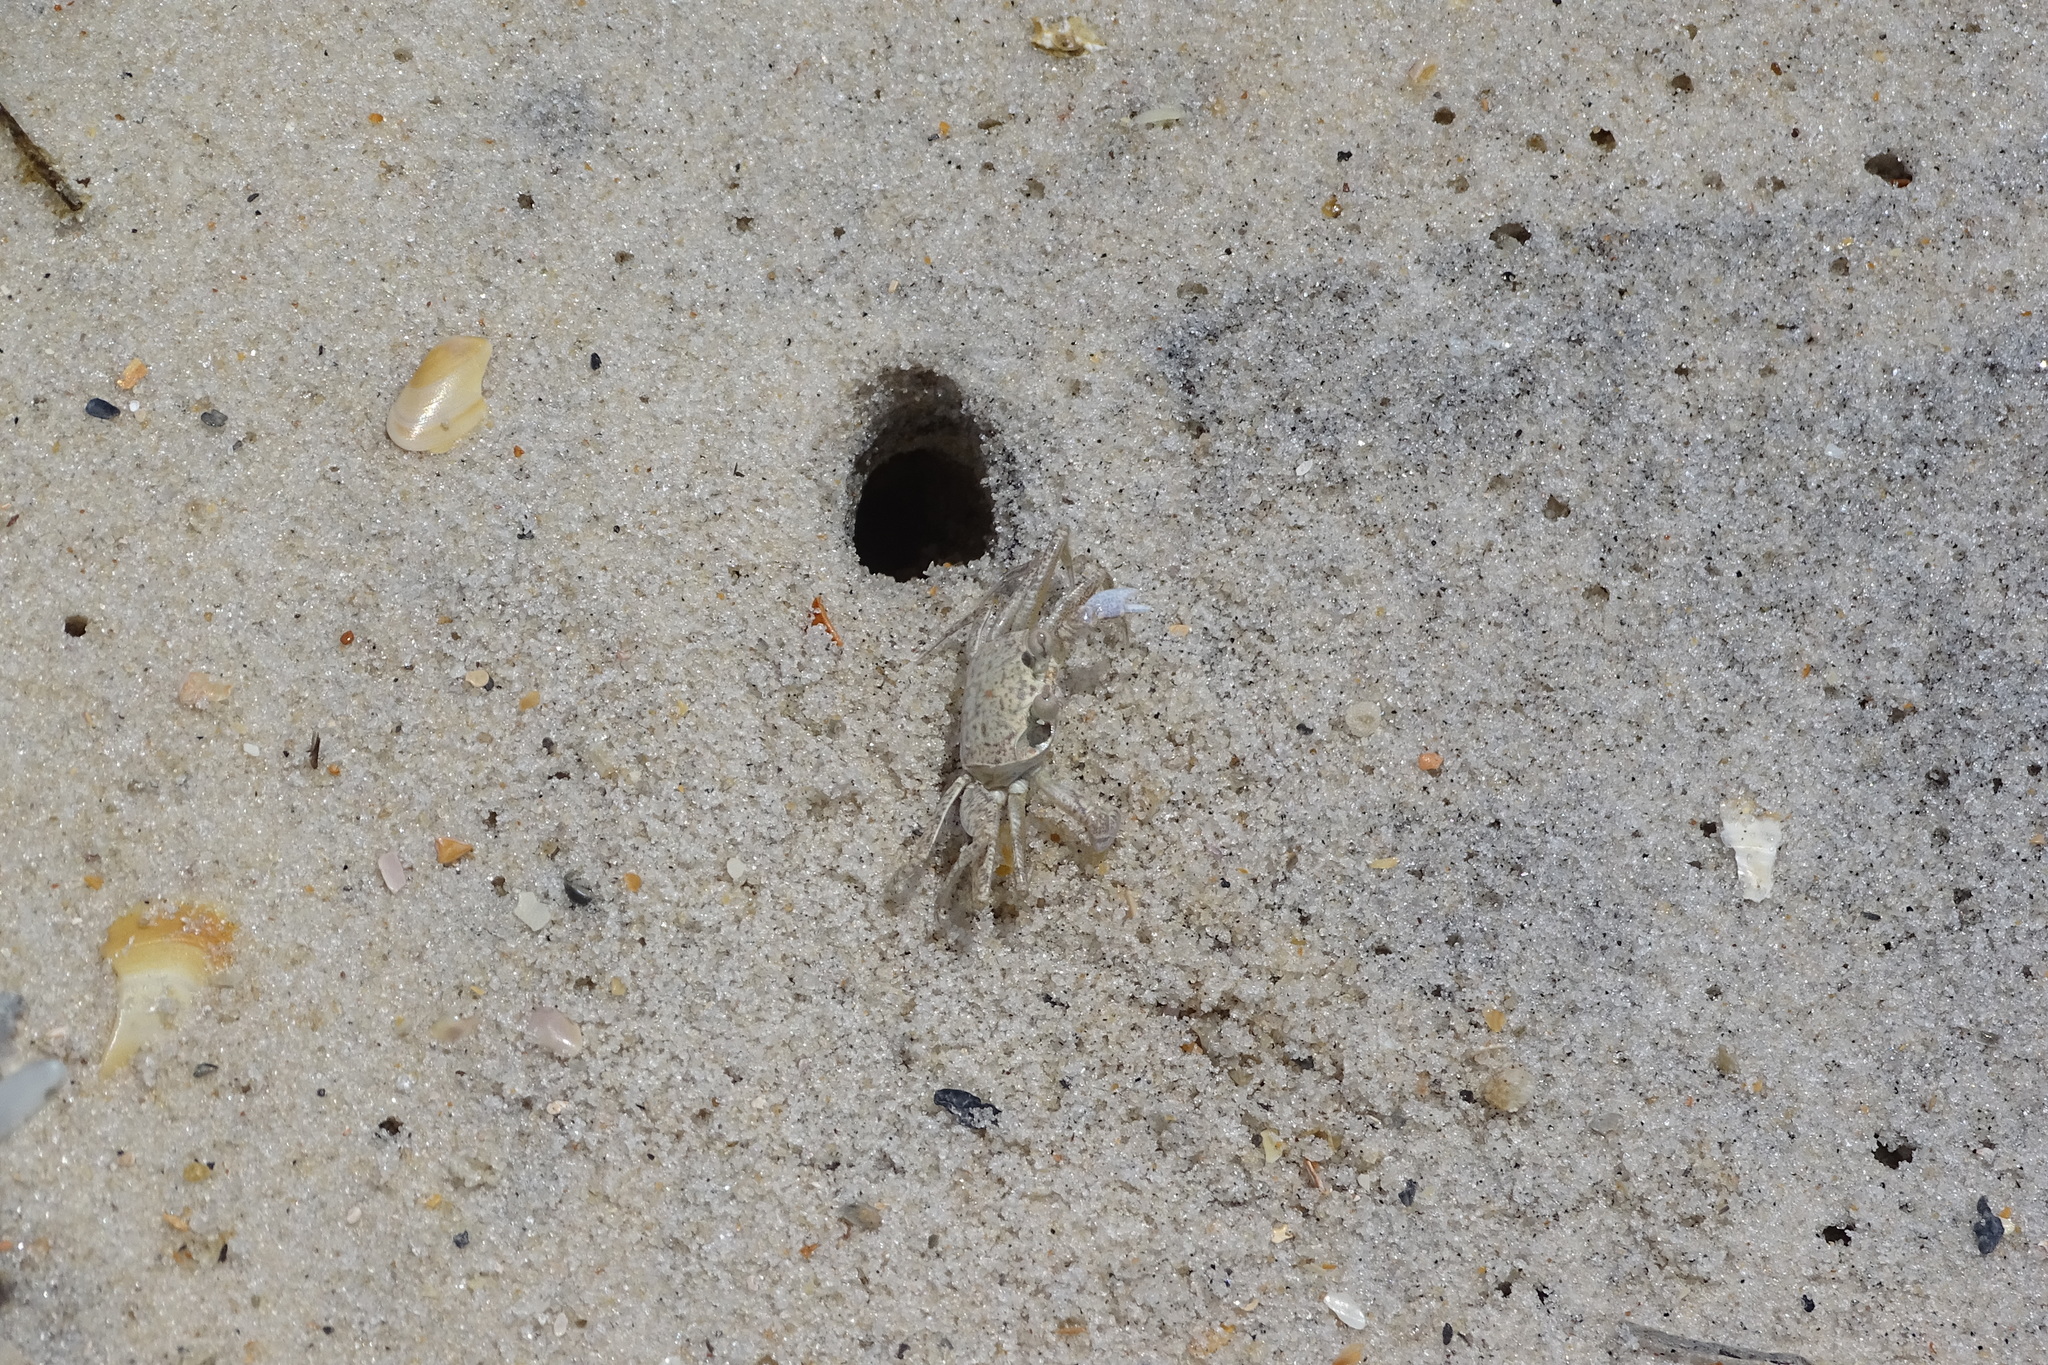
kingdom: Animalia
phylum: Arthropoda
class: Malacostraca
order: Decapoda
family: Ocypodidae
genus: Ocypode
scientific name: Ocypode quadrata
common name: Ghost crab
